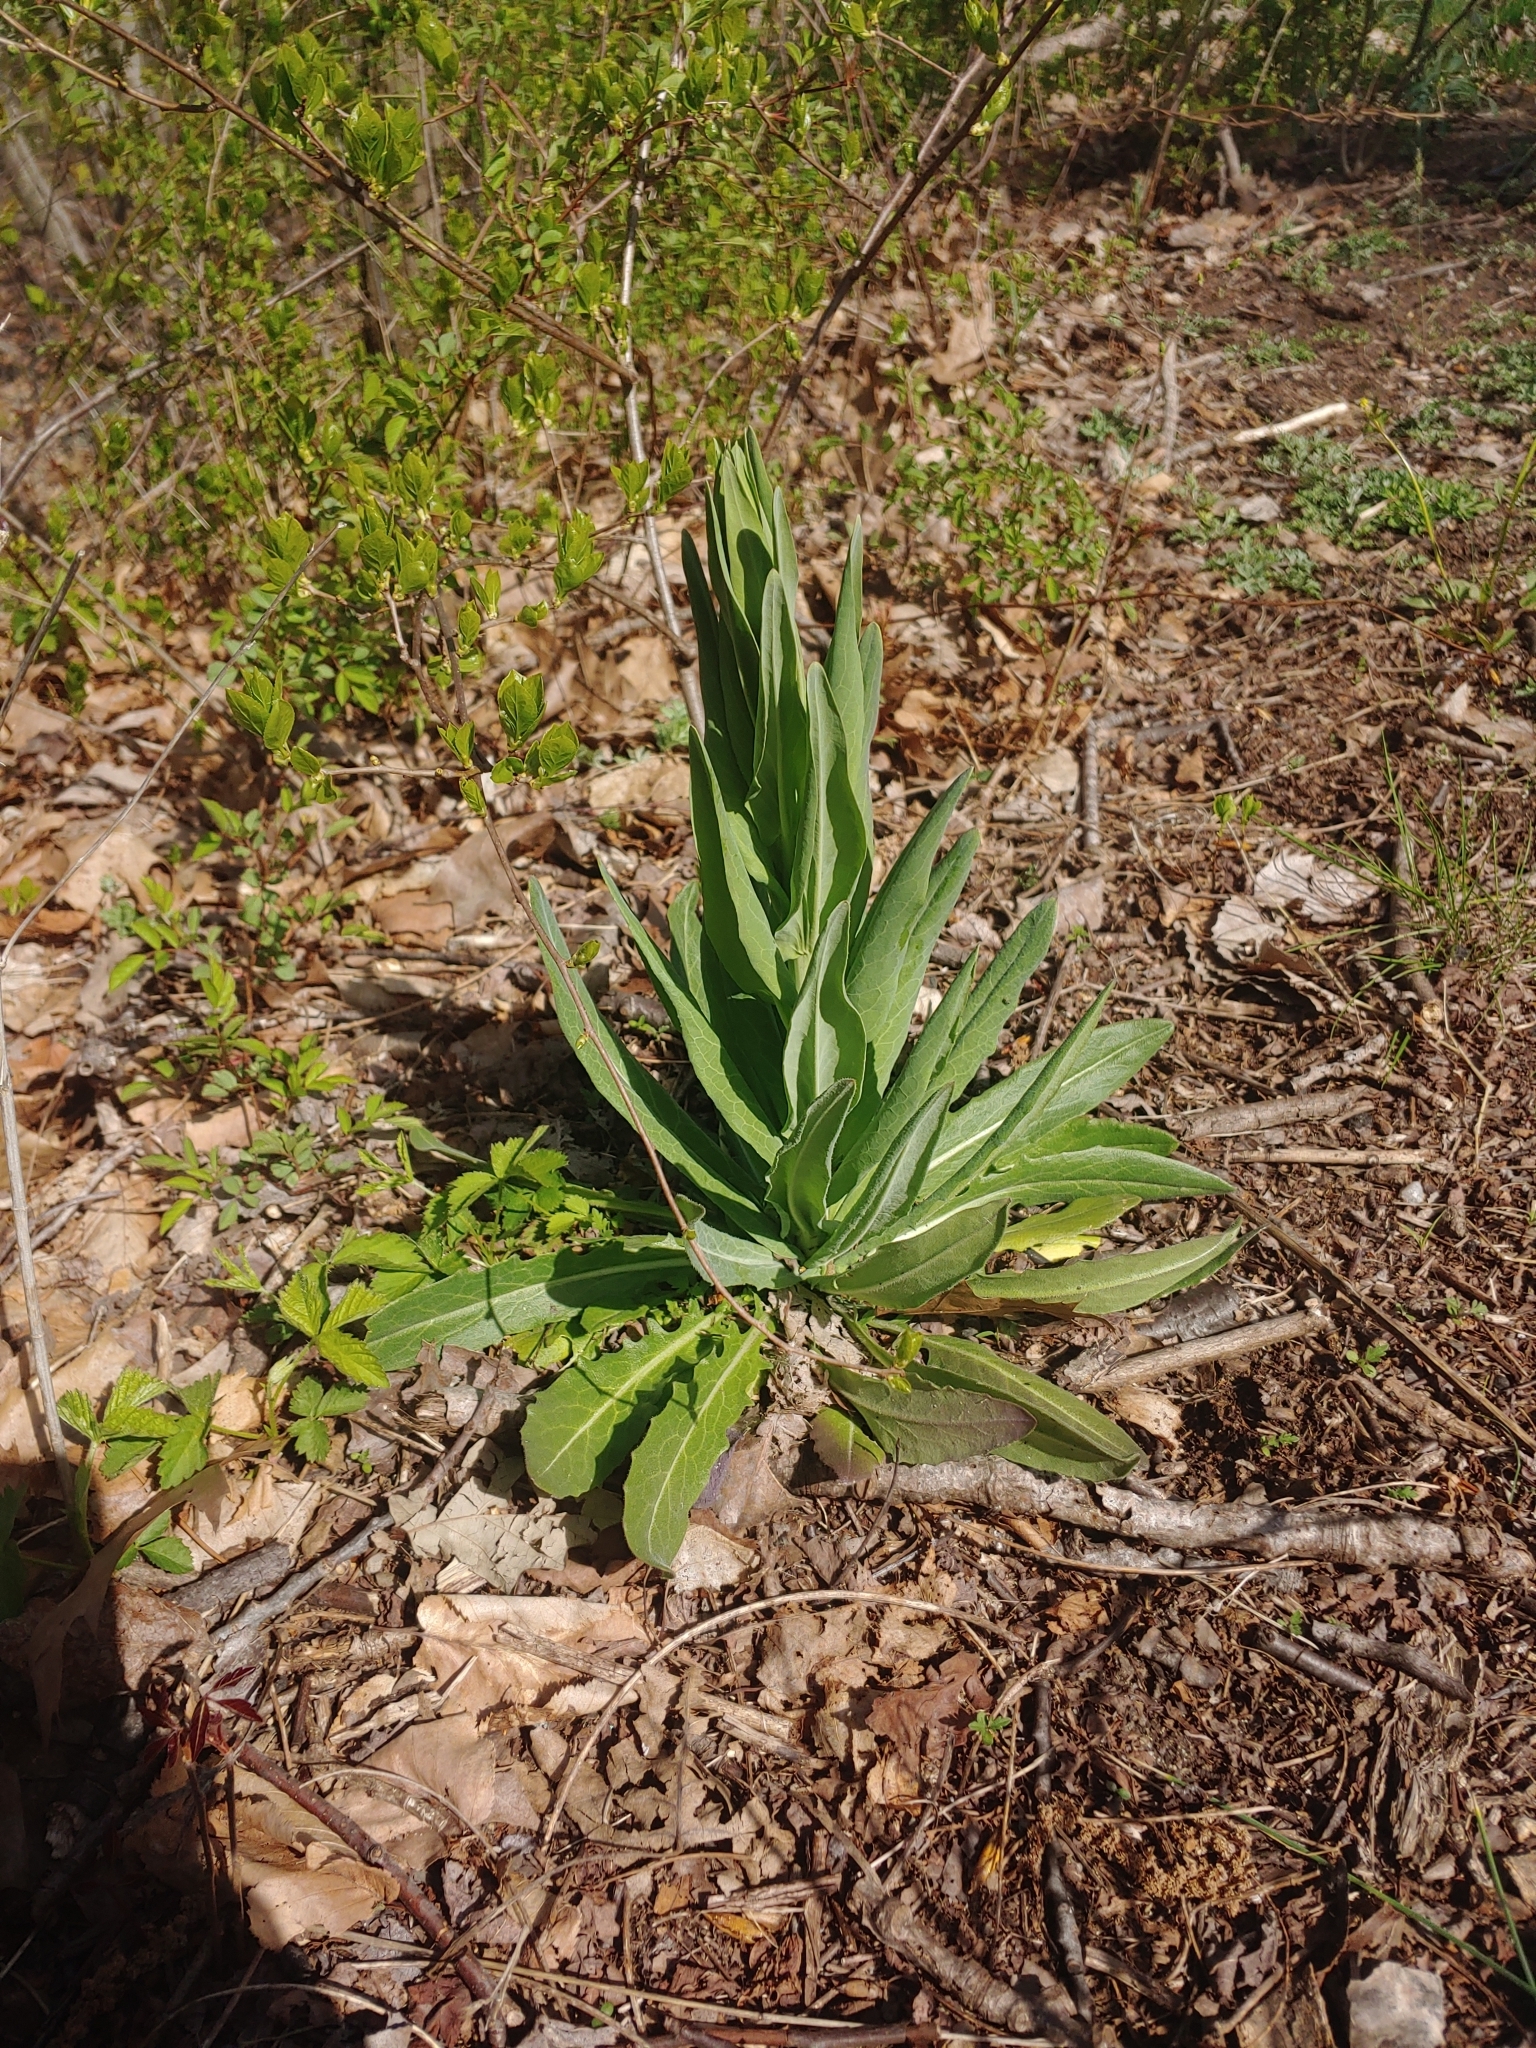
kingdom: Plantae
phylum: Tracheophyta
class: Magnoliopsida
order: Brassicales
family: Brassicaceae
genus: Turritis
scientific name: Turritis glabra
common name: Tower rockcress
